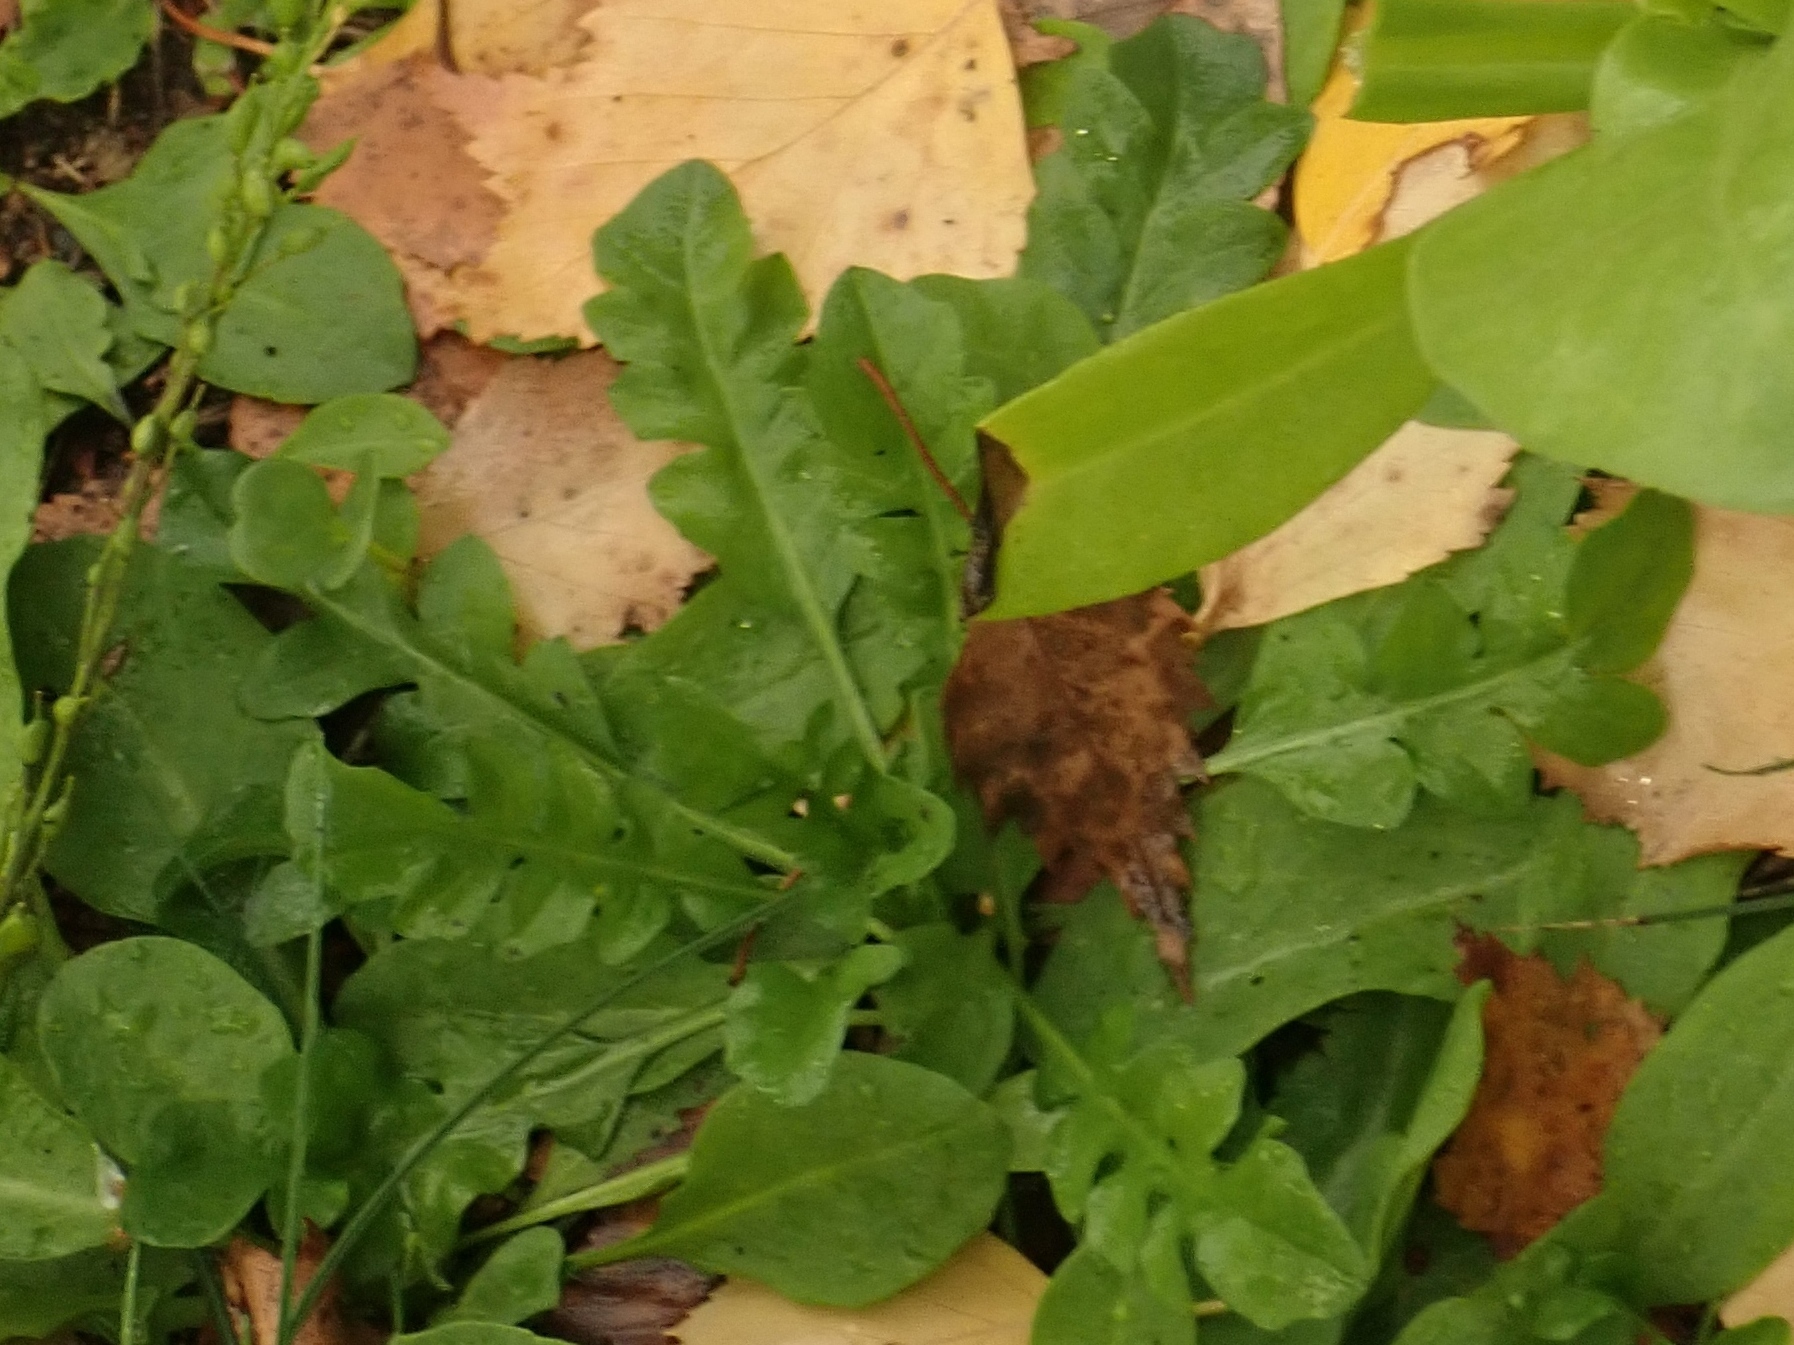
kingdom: Plantae
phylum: Tracheophyta
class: Magnoliopsida
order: Brassicales
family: Brassicaceae
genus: Capsella
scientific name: Capsella bursa-pastoris
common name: Shepherd's purse
